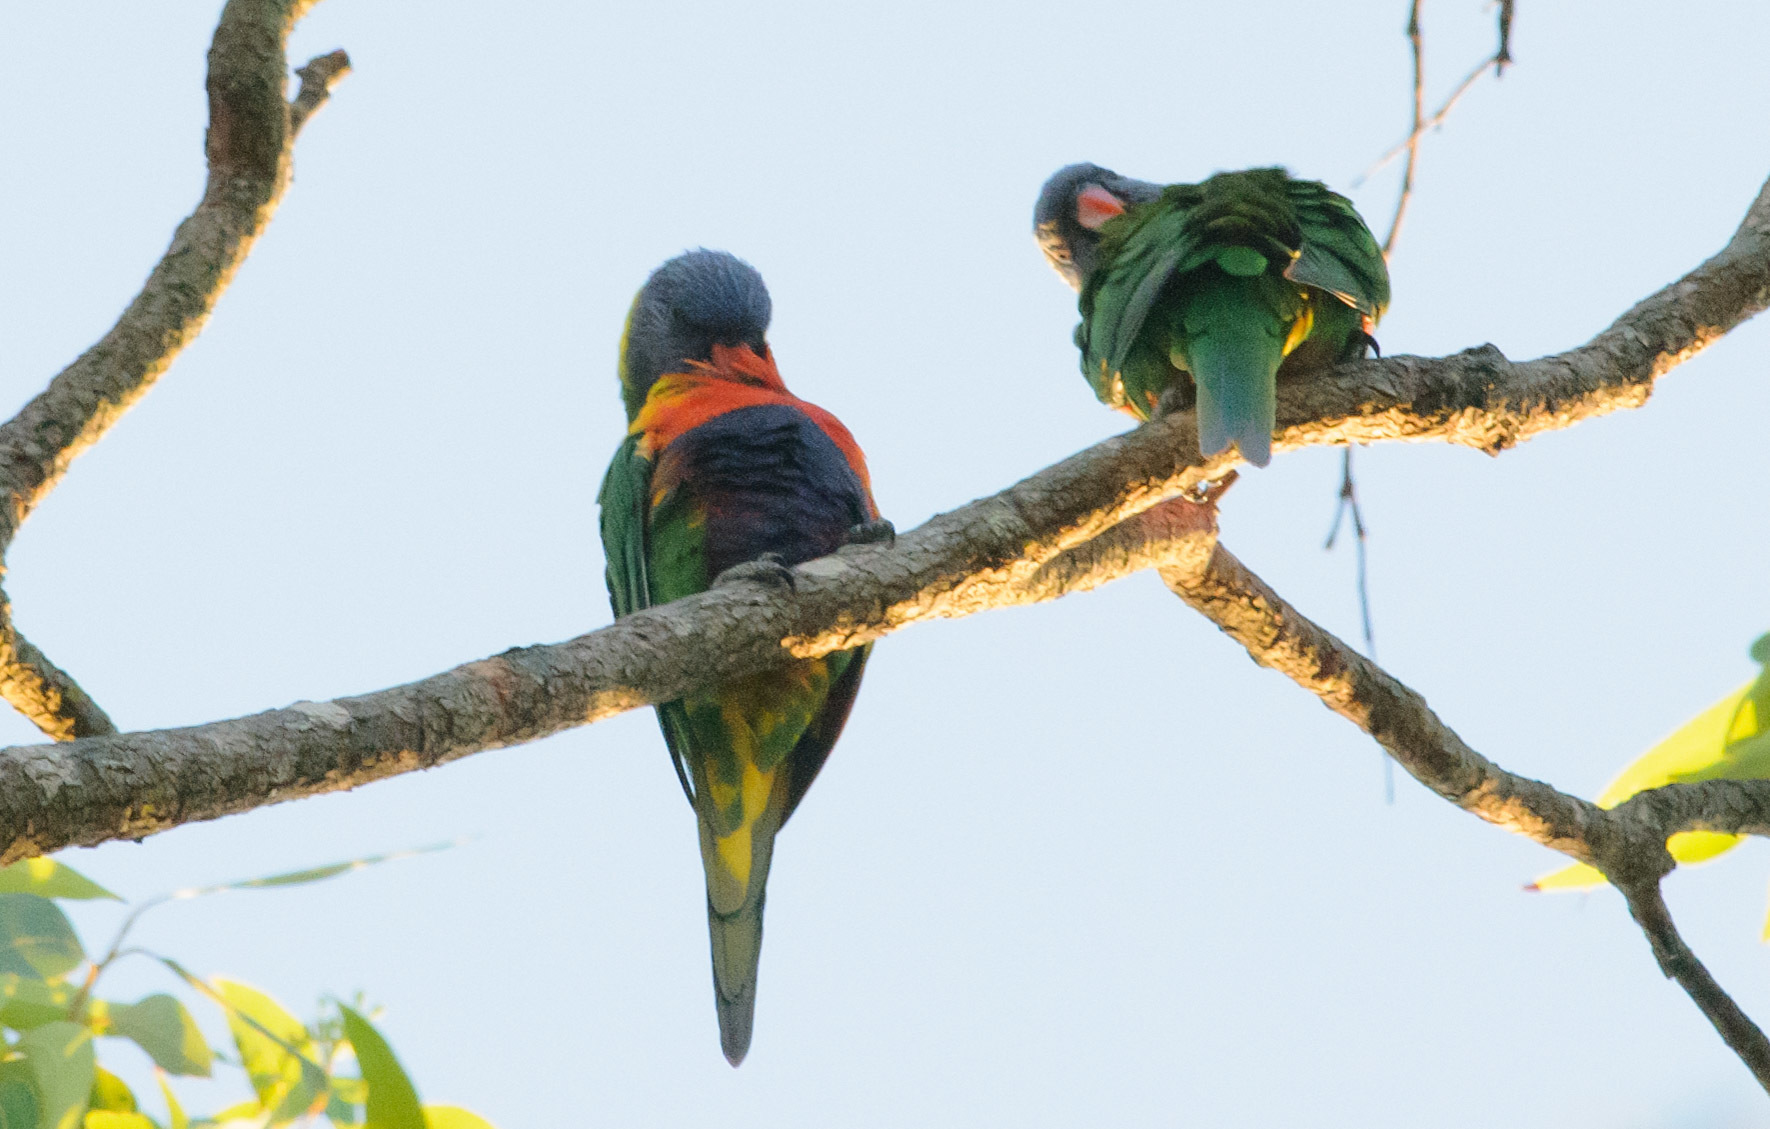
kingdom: Animalia
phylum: Chordata
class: Aves
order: Psittaciformes
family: Psittacidae
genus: Trichoglossus
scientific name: Trichoglossus haematodus
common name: Coconut lorikeet
